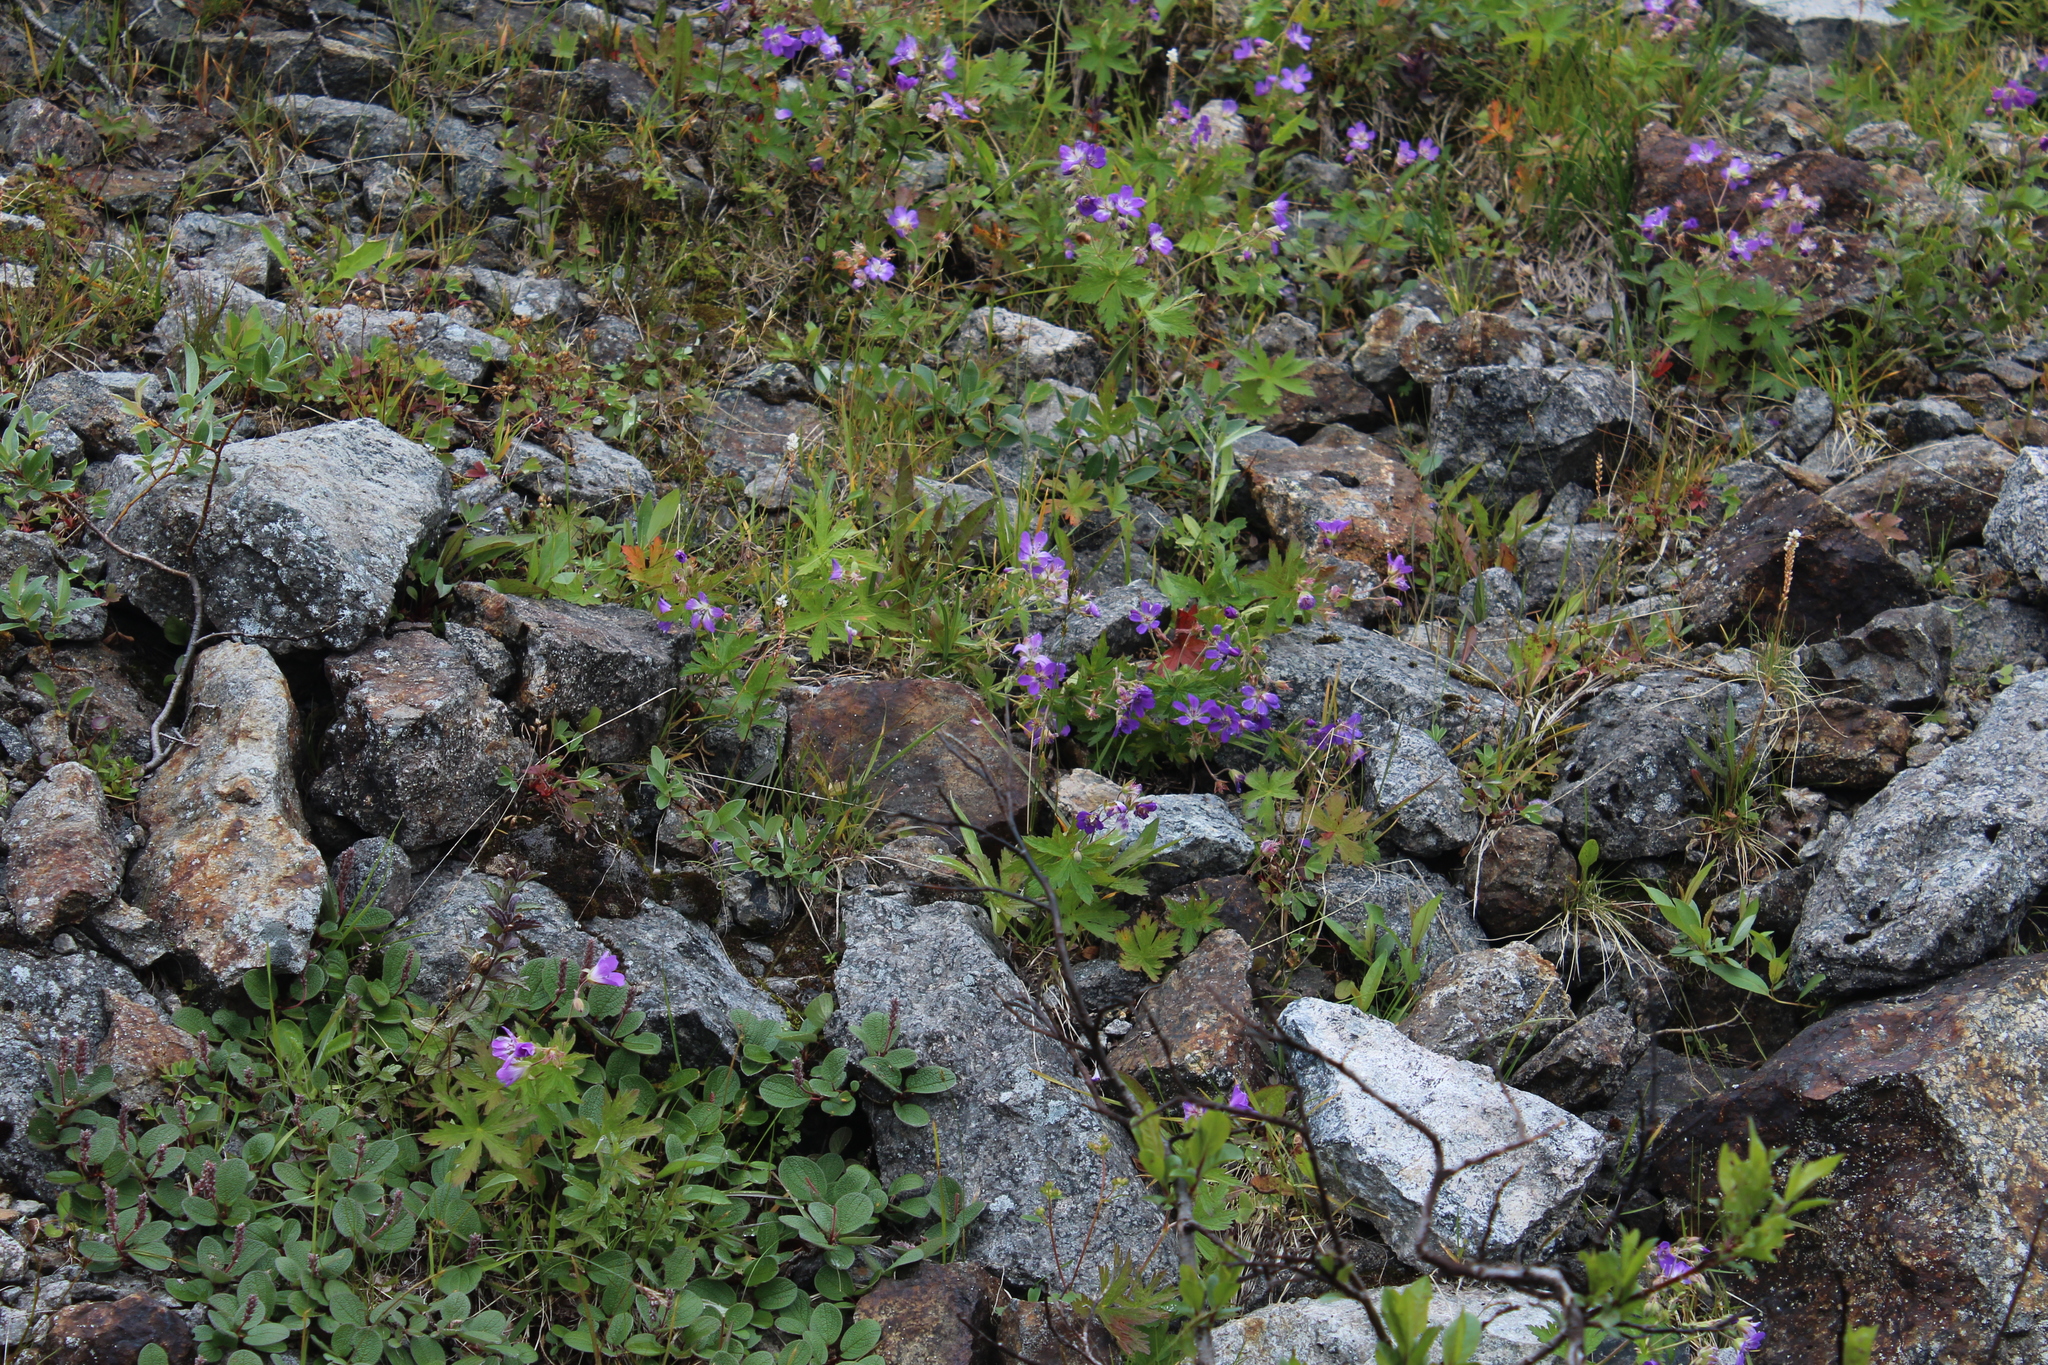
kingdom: Plantae
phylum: Tracheophyta
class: Magnoliopsida
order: Geraniales
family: Geraniaceae
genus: Geranium
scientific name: Geranium sylvaticum
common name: Wood crane's-bill
